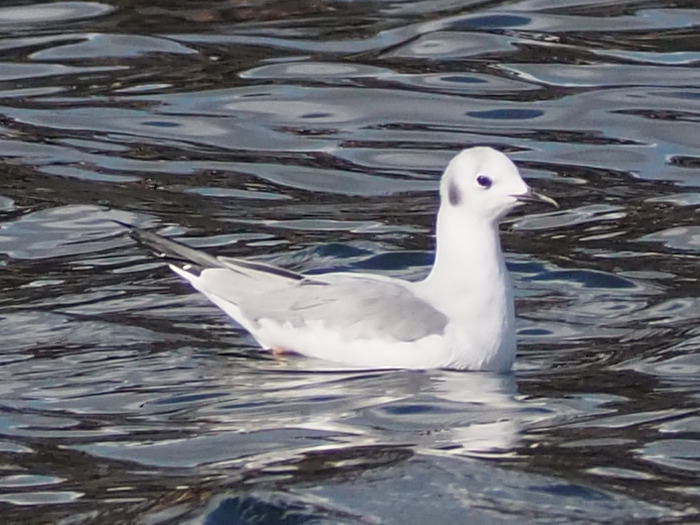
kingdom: Animalia
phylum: Chordata
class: Aves
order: Charadriiformes
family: Laridae
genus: Chroicocephalus
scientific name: Chroicocephalus philadelphia
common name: Bonaparte's gull
